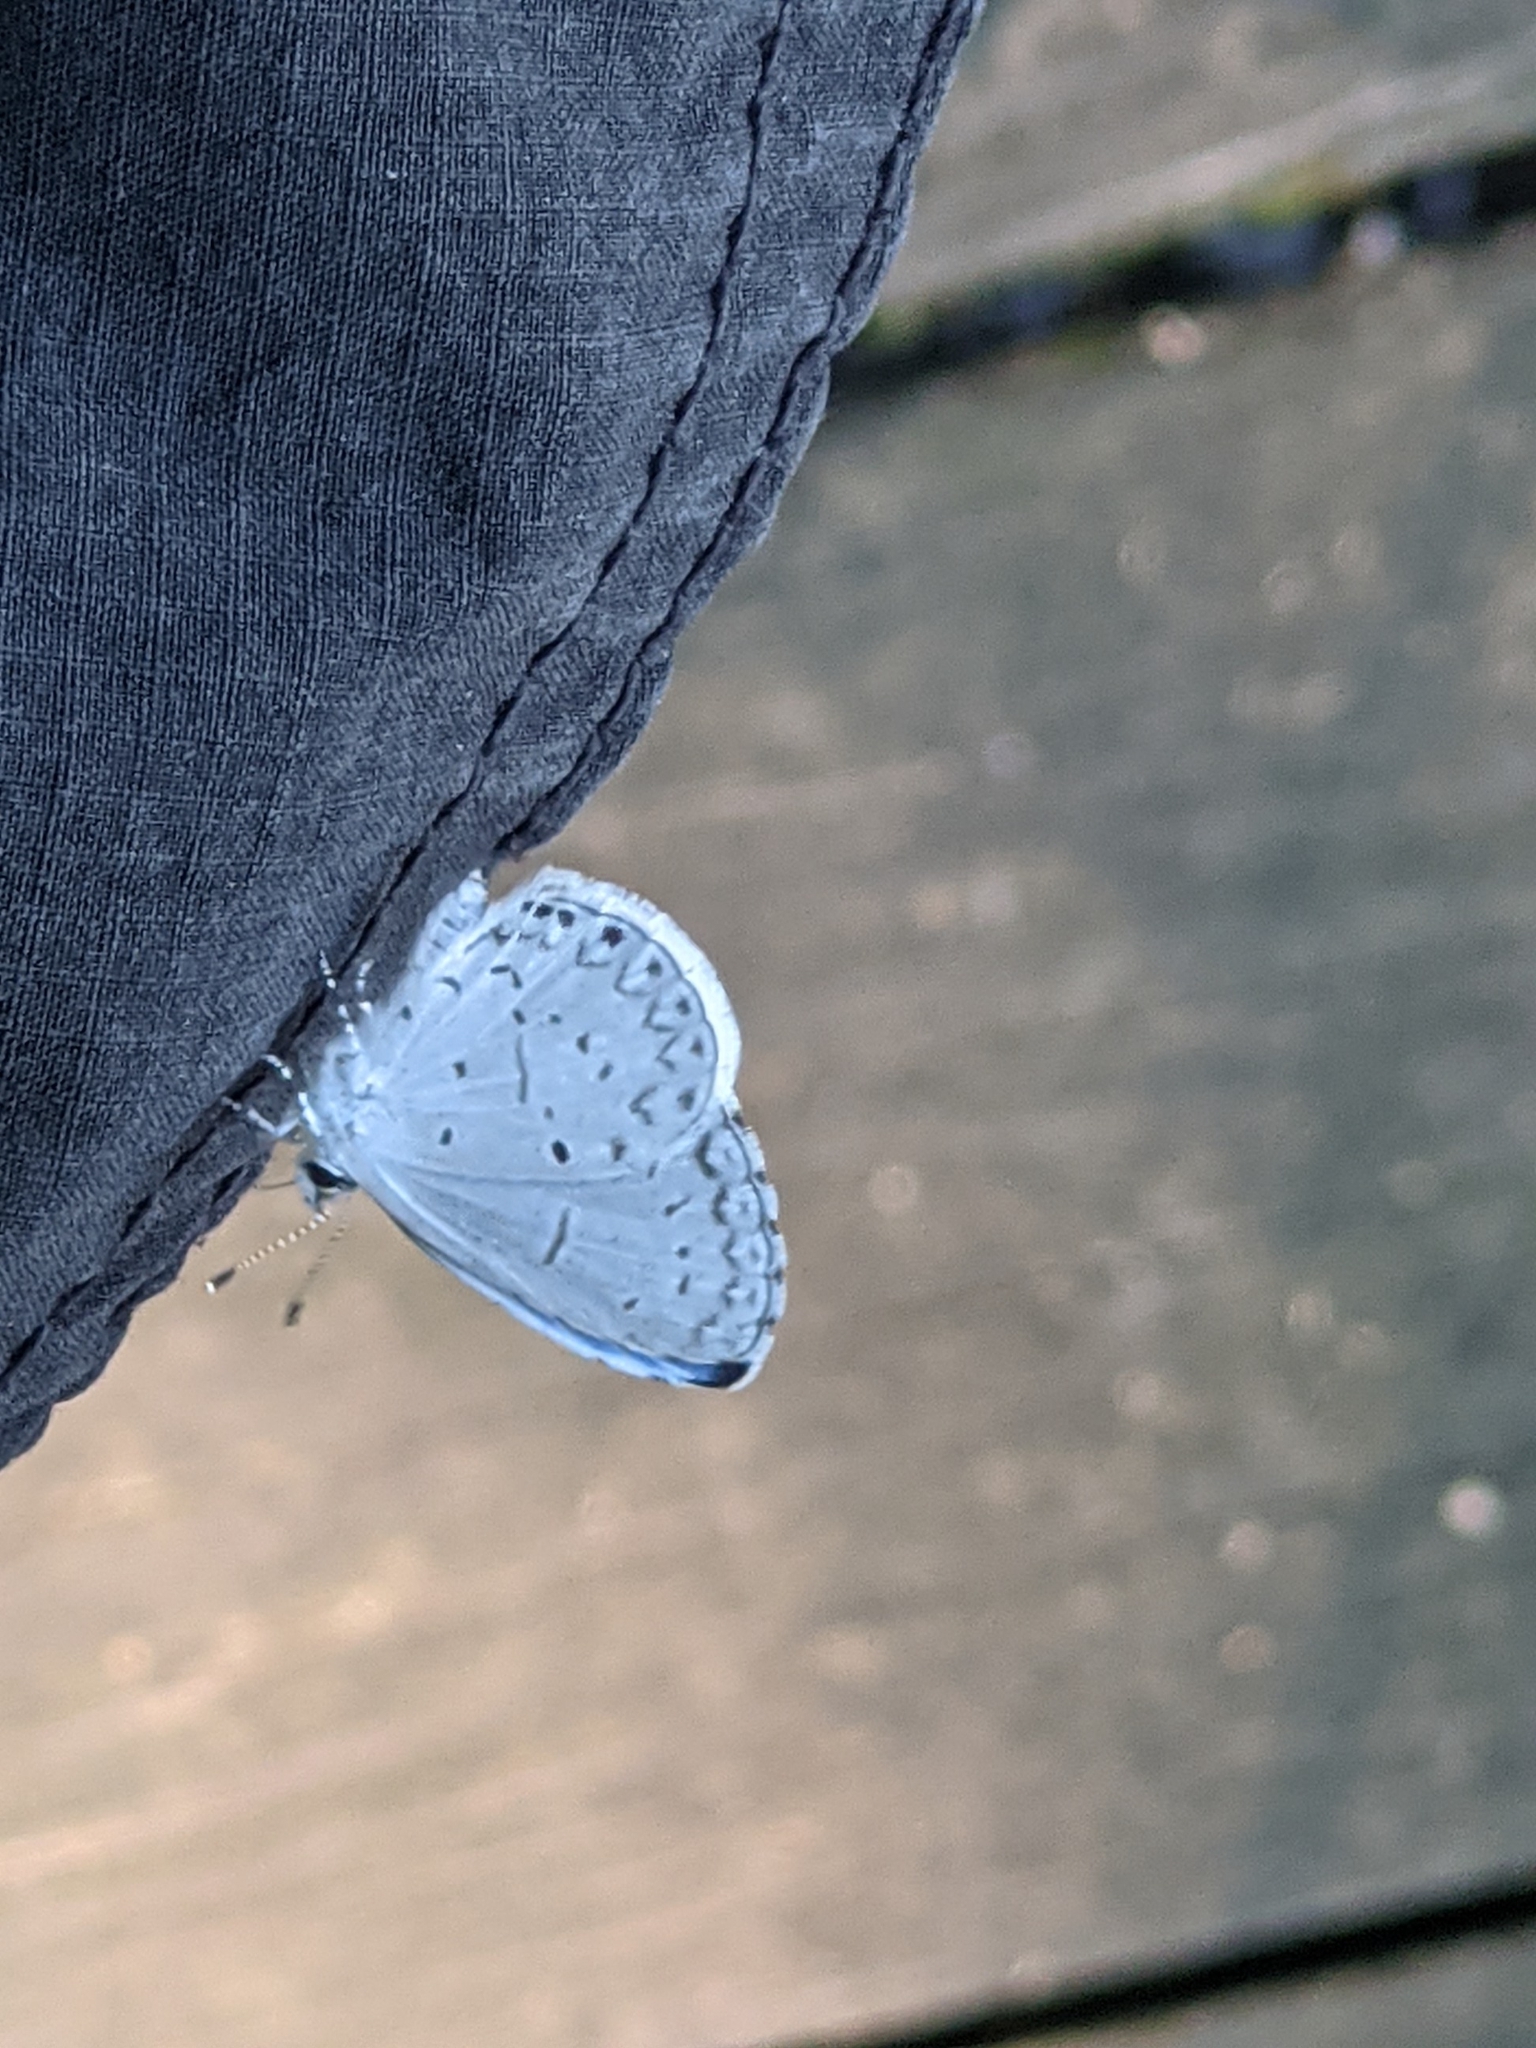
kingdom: Animalia
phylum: Arthropoda
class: Insecta
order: Lepidoptera
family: Lycaenidae
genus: Cyaniris
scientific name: Cyaniris neglecta
